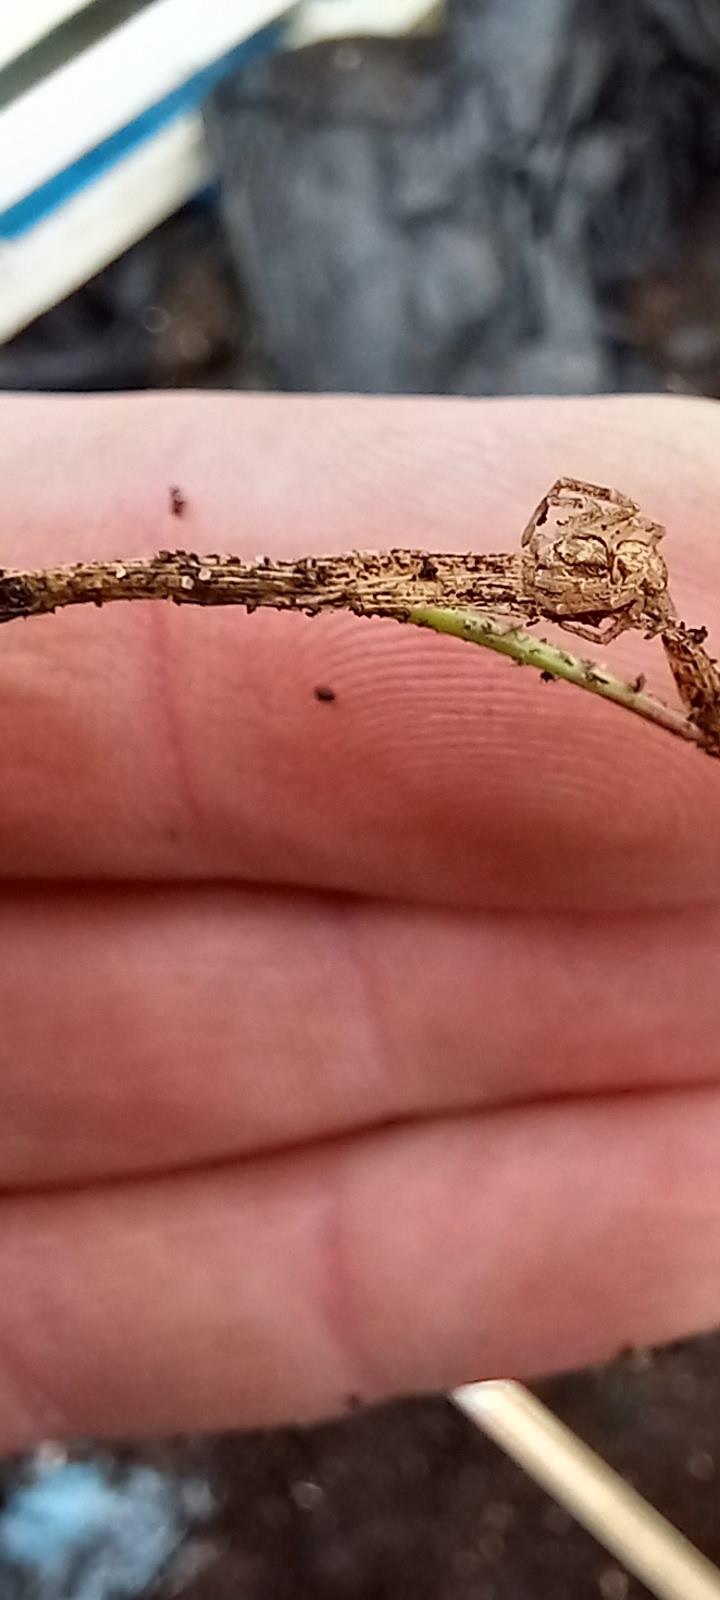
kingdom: Animalia
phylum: Arthropoda
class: Arachnida
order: Araneae
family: Philodromidae
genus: Philodromus
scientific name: Philodromus dispar
